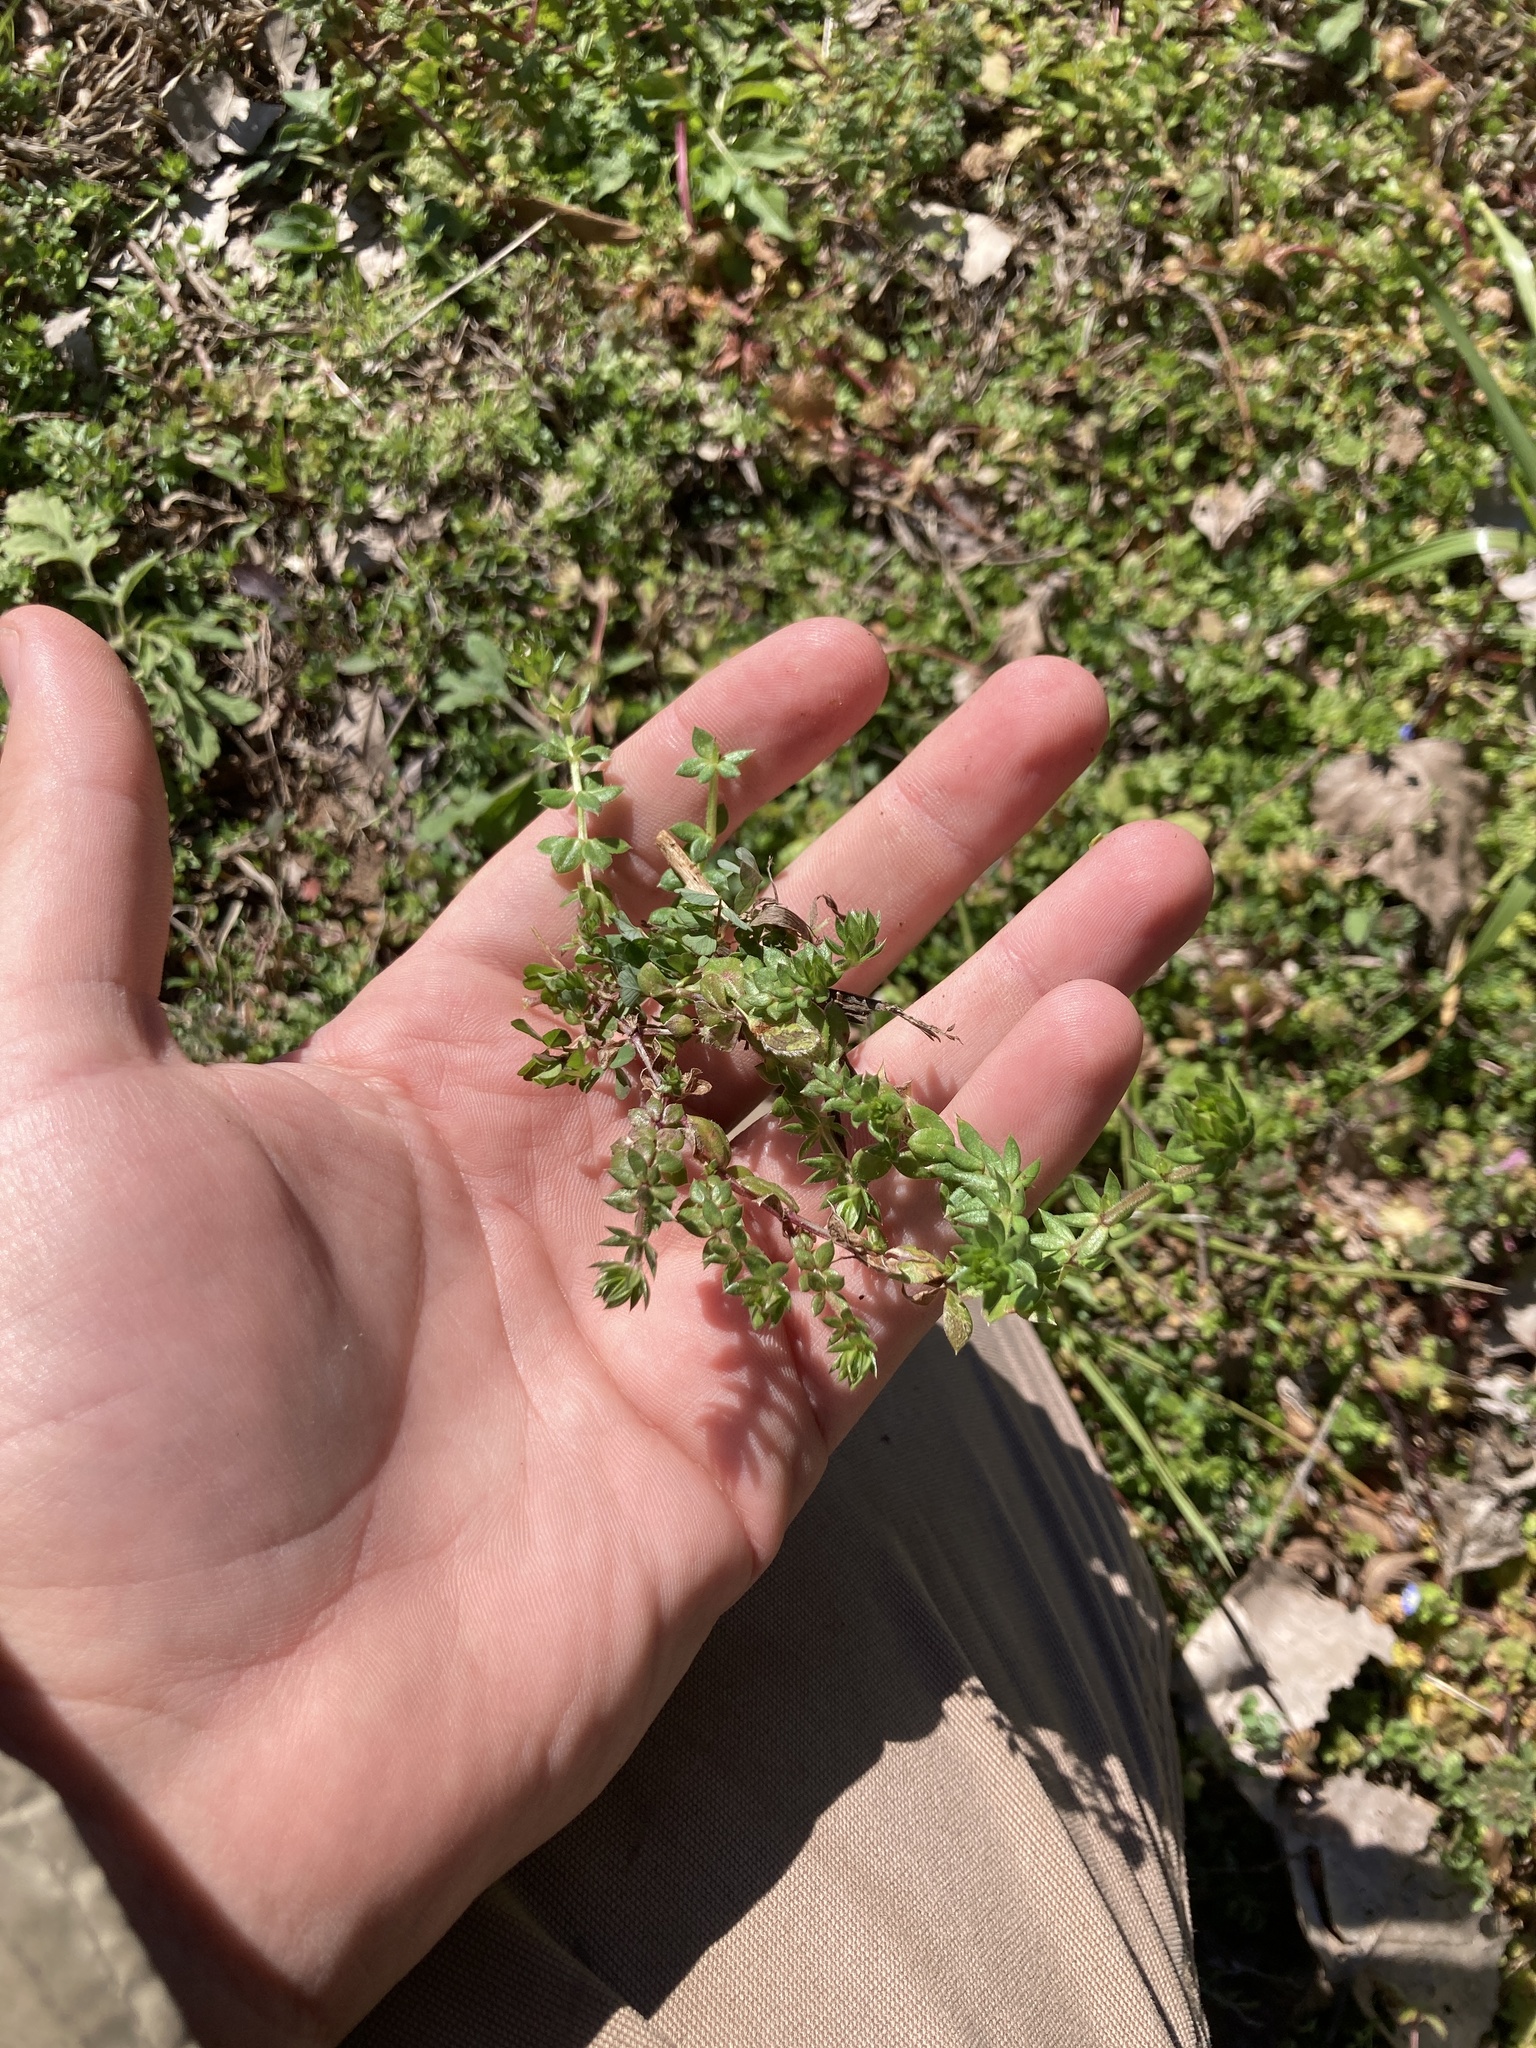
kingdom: Plantae
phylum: Tracheophyta
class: Magnoliopsida
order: Gentianales
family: Rubiaceae
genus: Sherardia
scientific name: Sherardia arvensis
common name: Field madder
